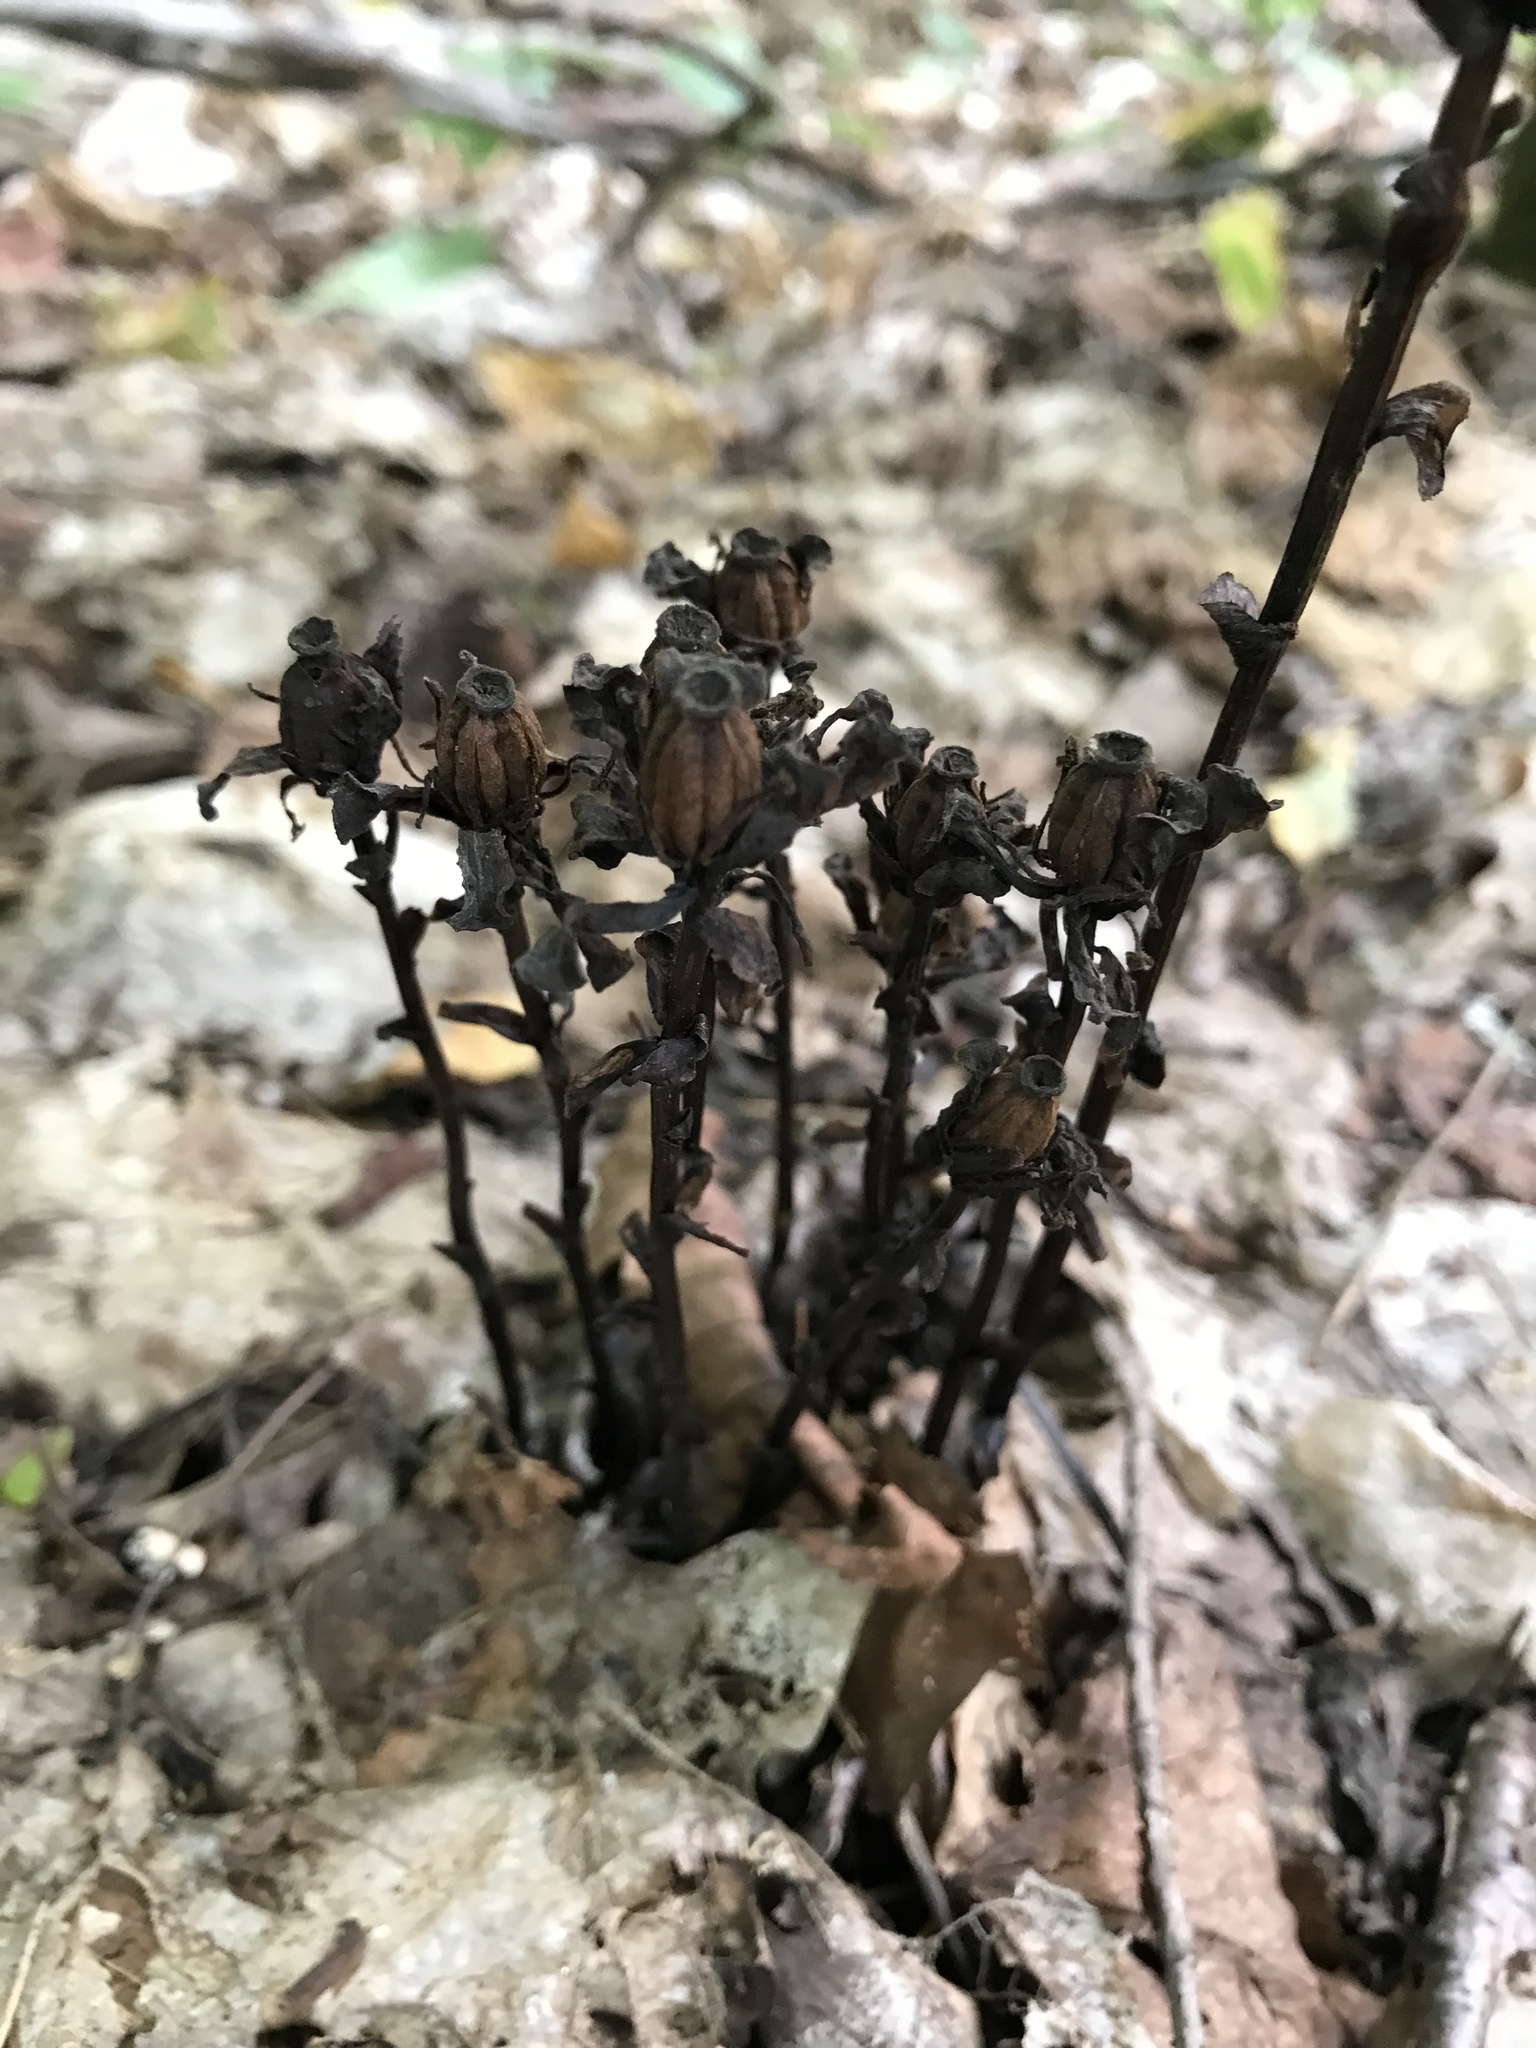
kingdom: Plantae
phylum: Tracheophyta
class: Magnoliopsida
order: Ericales
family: Ericaceae
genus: Monotropa
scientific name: Monotropa uniflora
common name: Convulsion root
